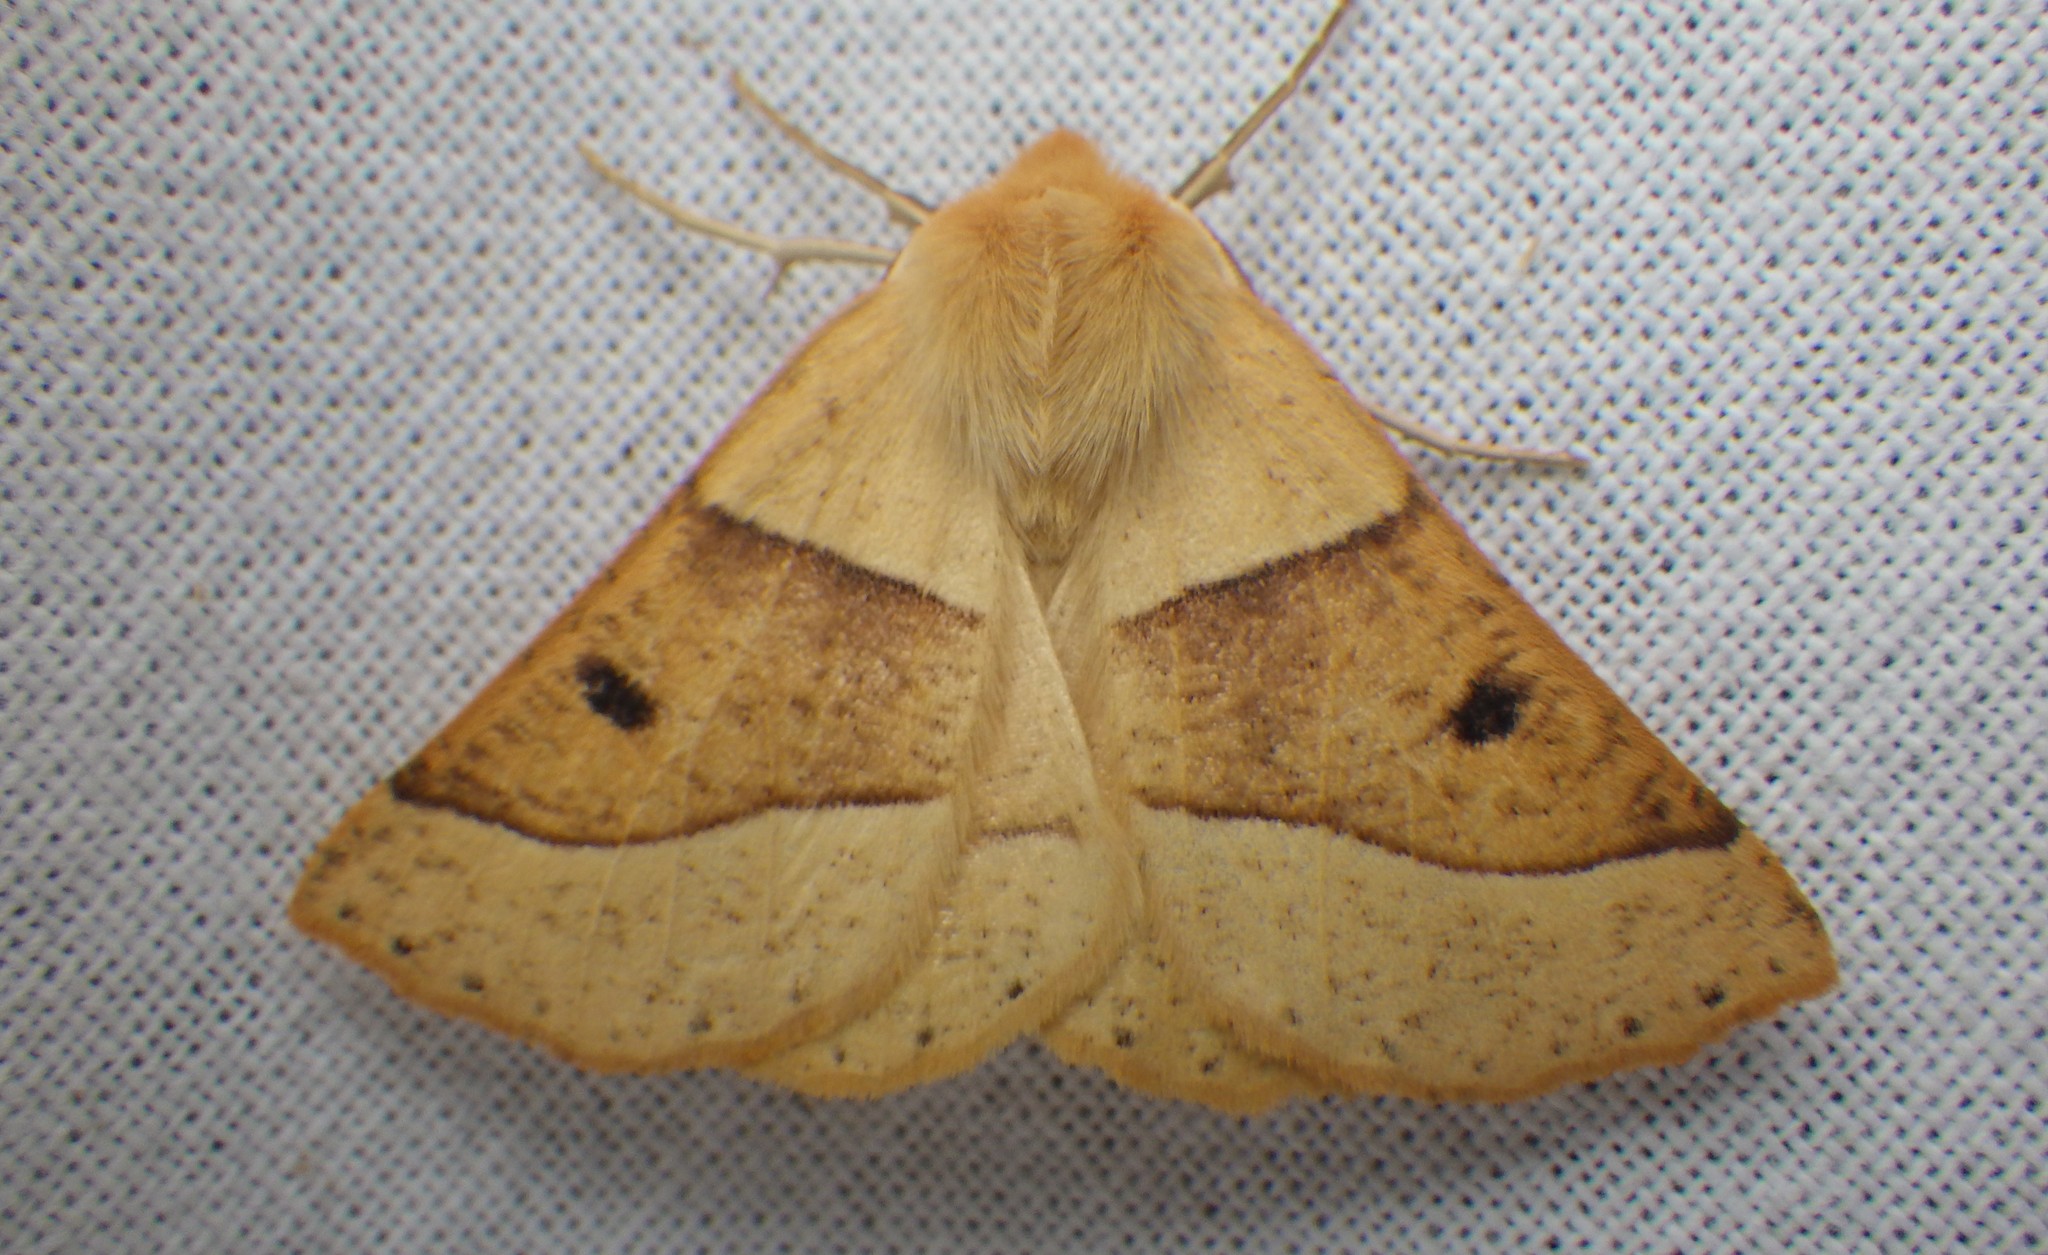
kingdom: Animalia
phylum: Arthropoda
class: Insecta
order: Lepidoptera
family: Geometridae
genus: Crocallis
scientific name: Crocallis elinguaria
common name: Scalloped oak
